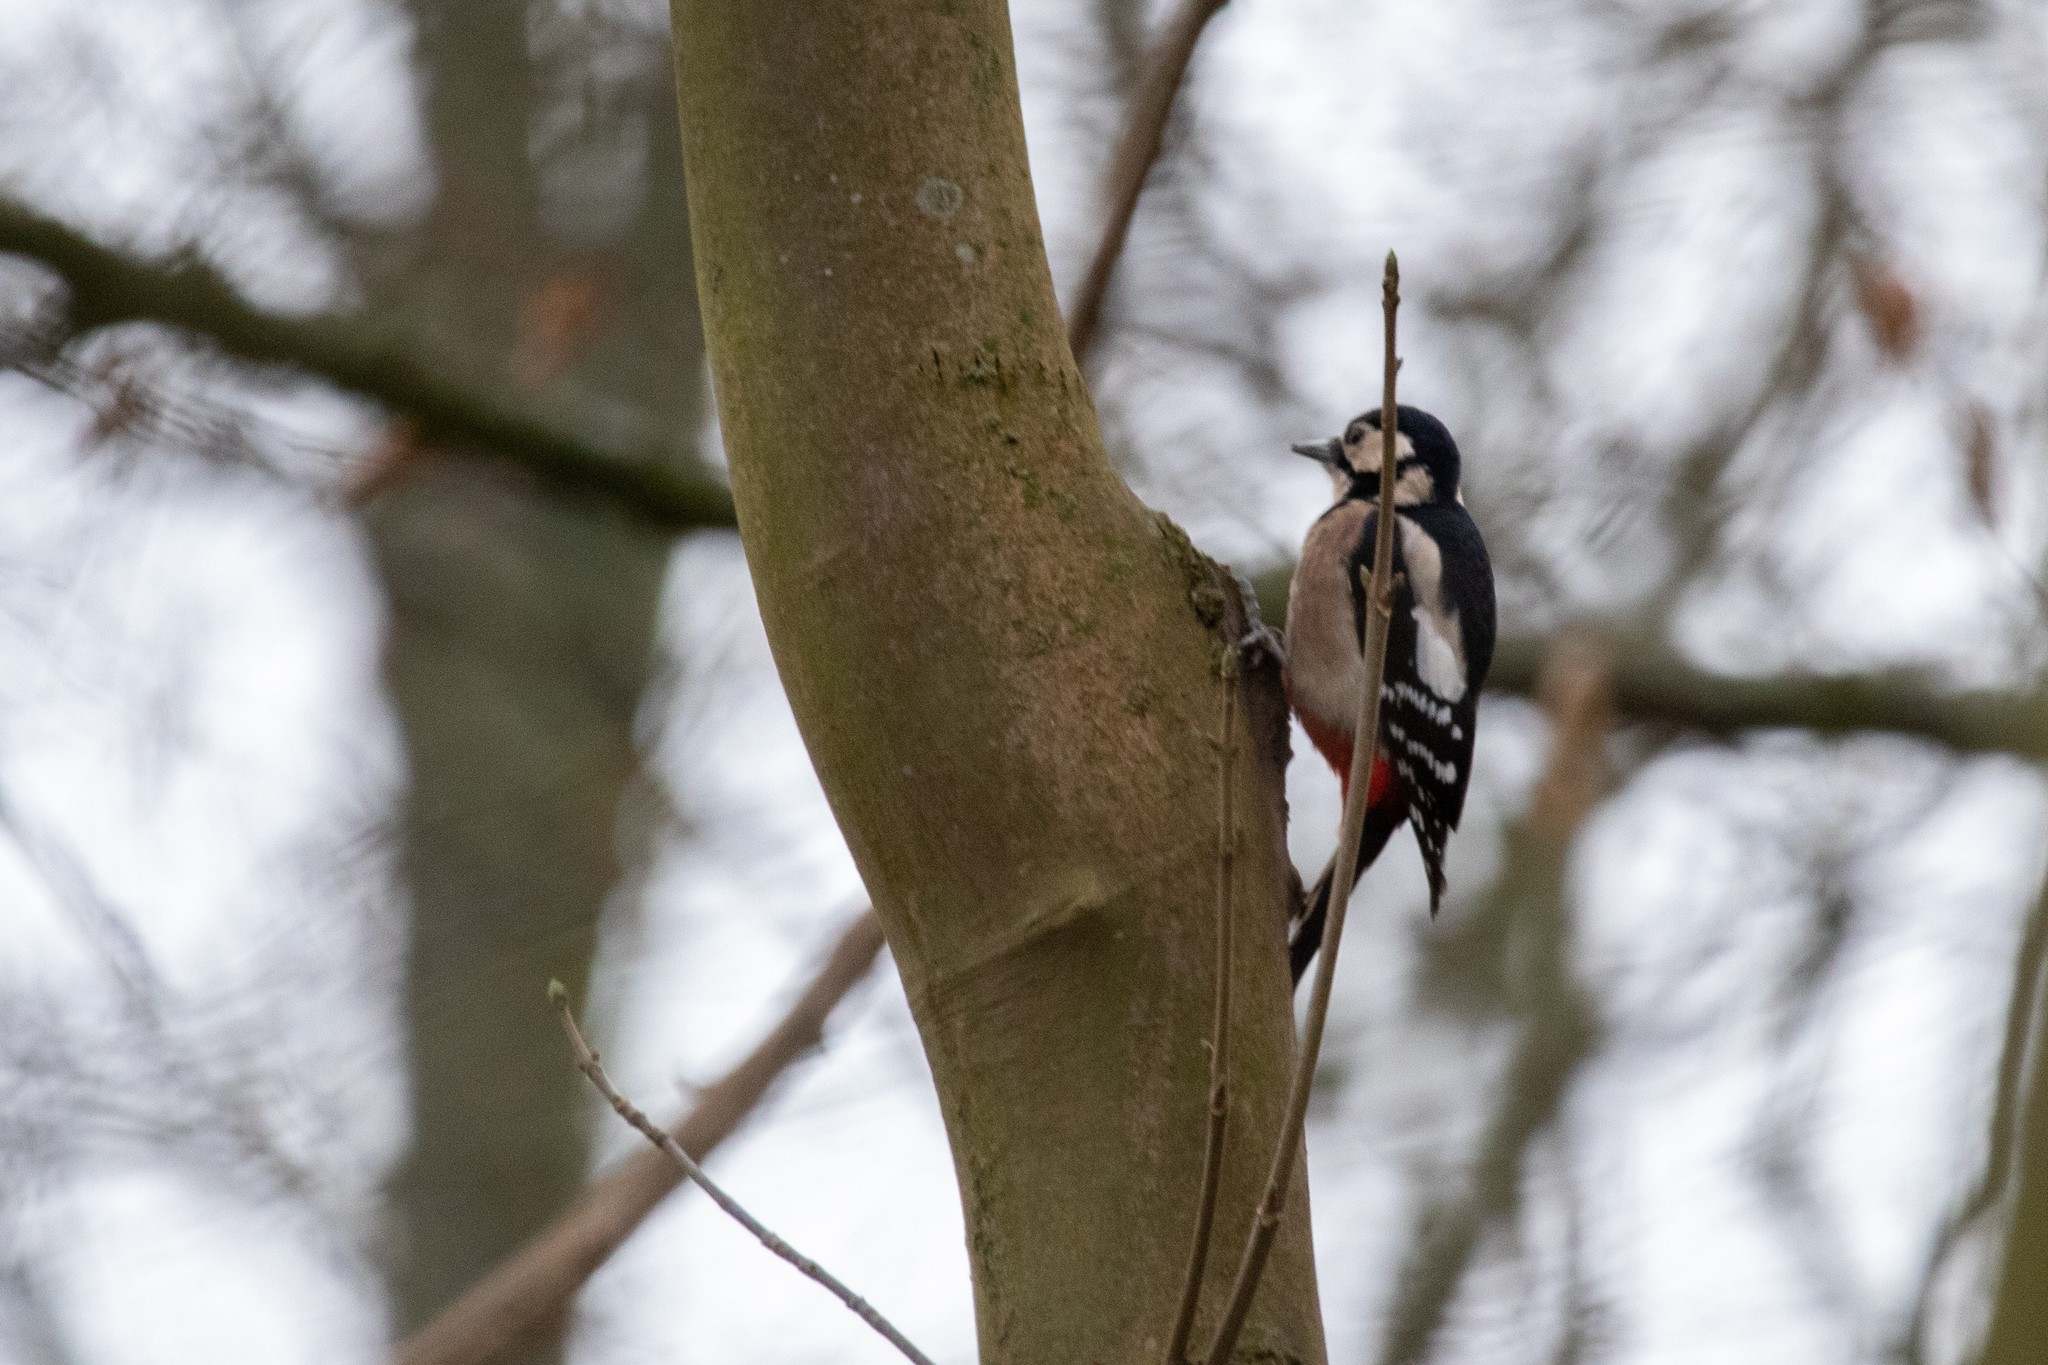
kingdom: Animalia
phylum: Chordata
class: Aves
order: Piciformes
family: Picidae
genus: Dendrocopos
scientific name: Dendrocopos major
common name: Great spotted woodpecker
